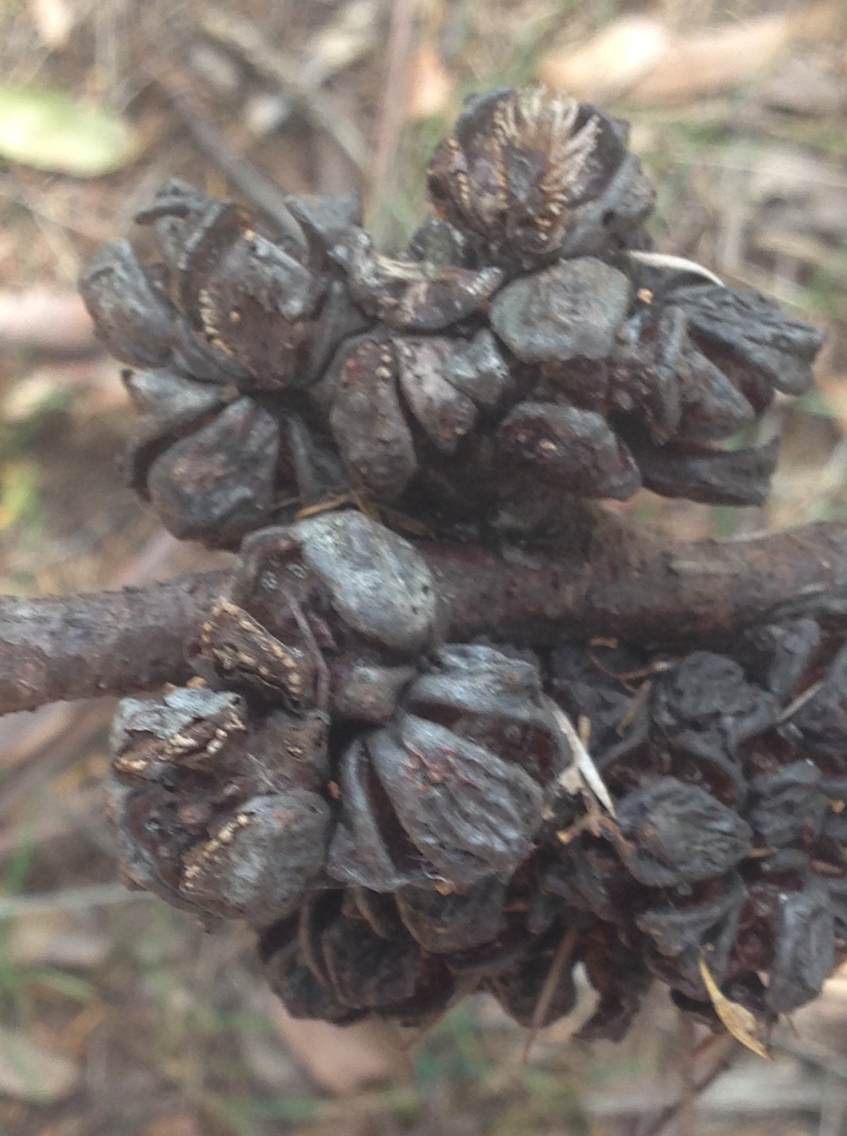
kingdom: Plantae
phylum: Tracheophyta
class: Pinopsida
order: Pinales
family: Cupressaceae
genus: Callitris
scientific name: Callitris rhomboidea
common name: Illawara mountain pine
